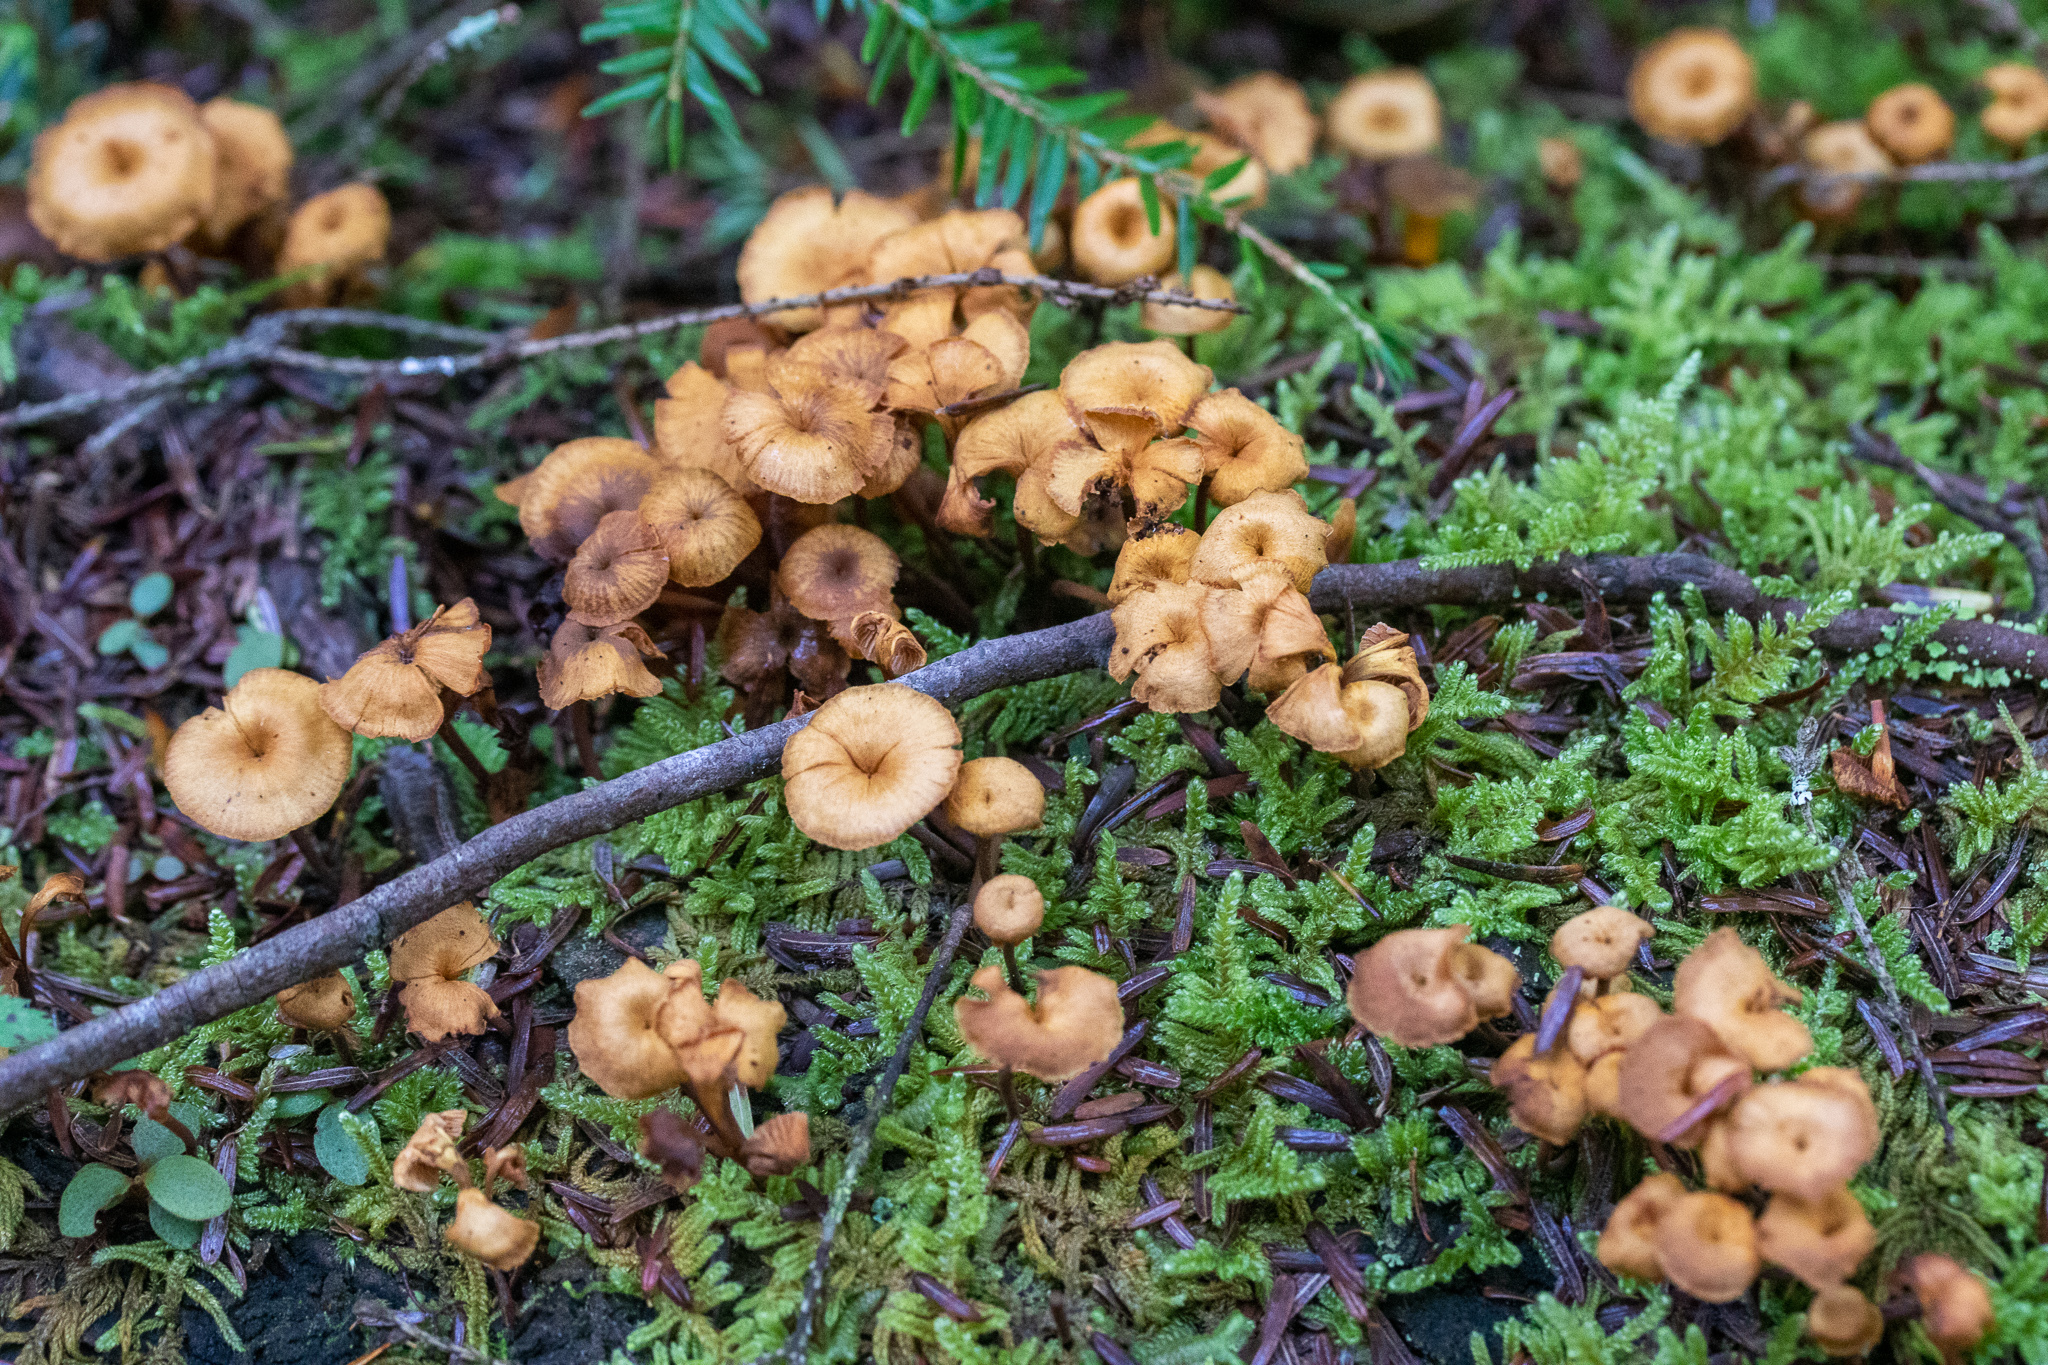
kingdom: Fungi
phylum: Basidiomycota
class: Agaricomycetes
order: Agaricales
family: Mycenaceae
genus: Xeromphalina
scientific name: Xeromphalina campanella
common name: Pinewood gingertail
